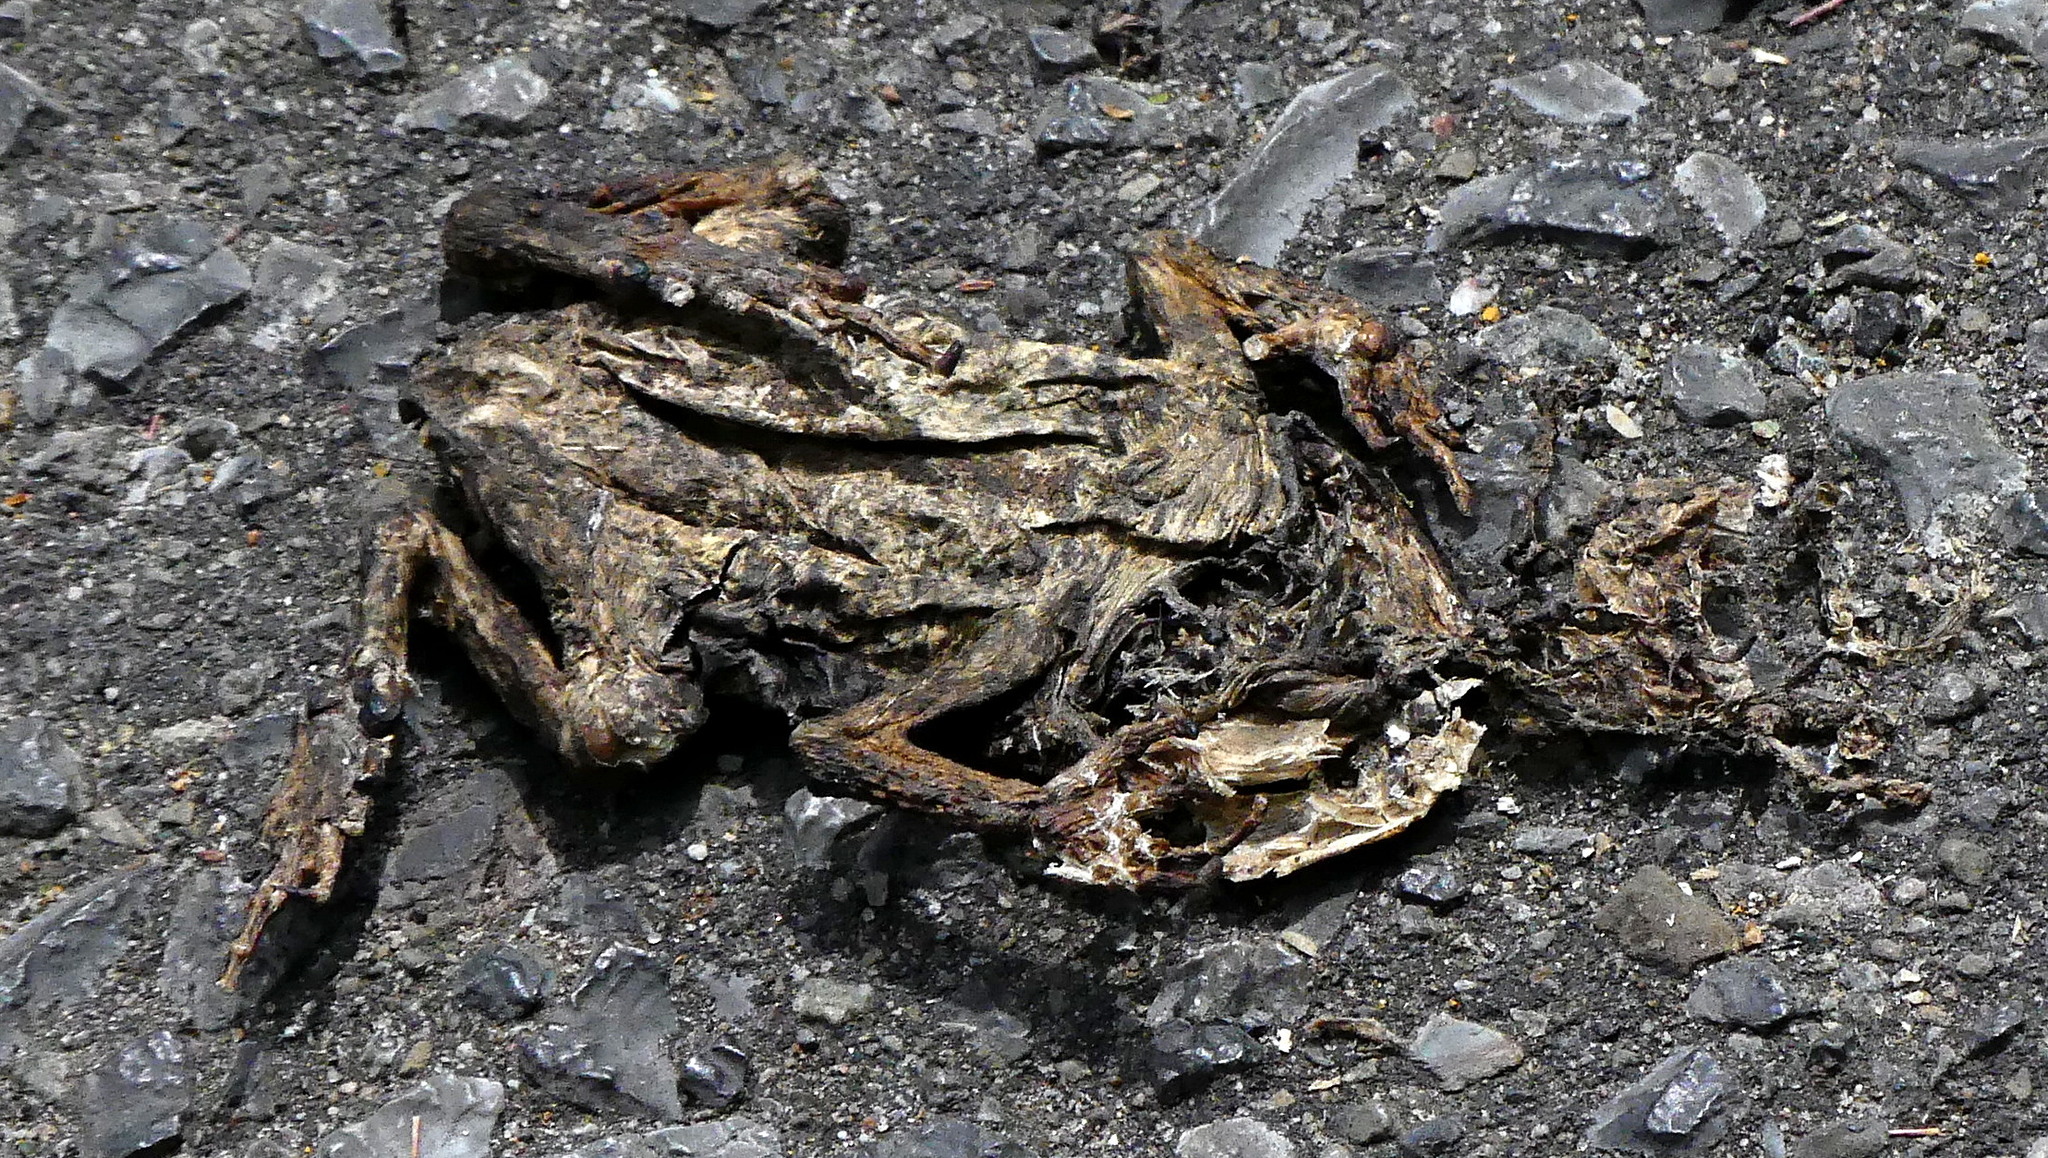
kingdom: Animalia
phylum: Chordata
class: Amphibia
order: Anura
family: Bufonidae
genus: Anaxyrus
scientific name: Anaxyrus americanus
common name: American toad
